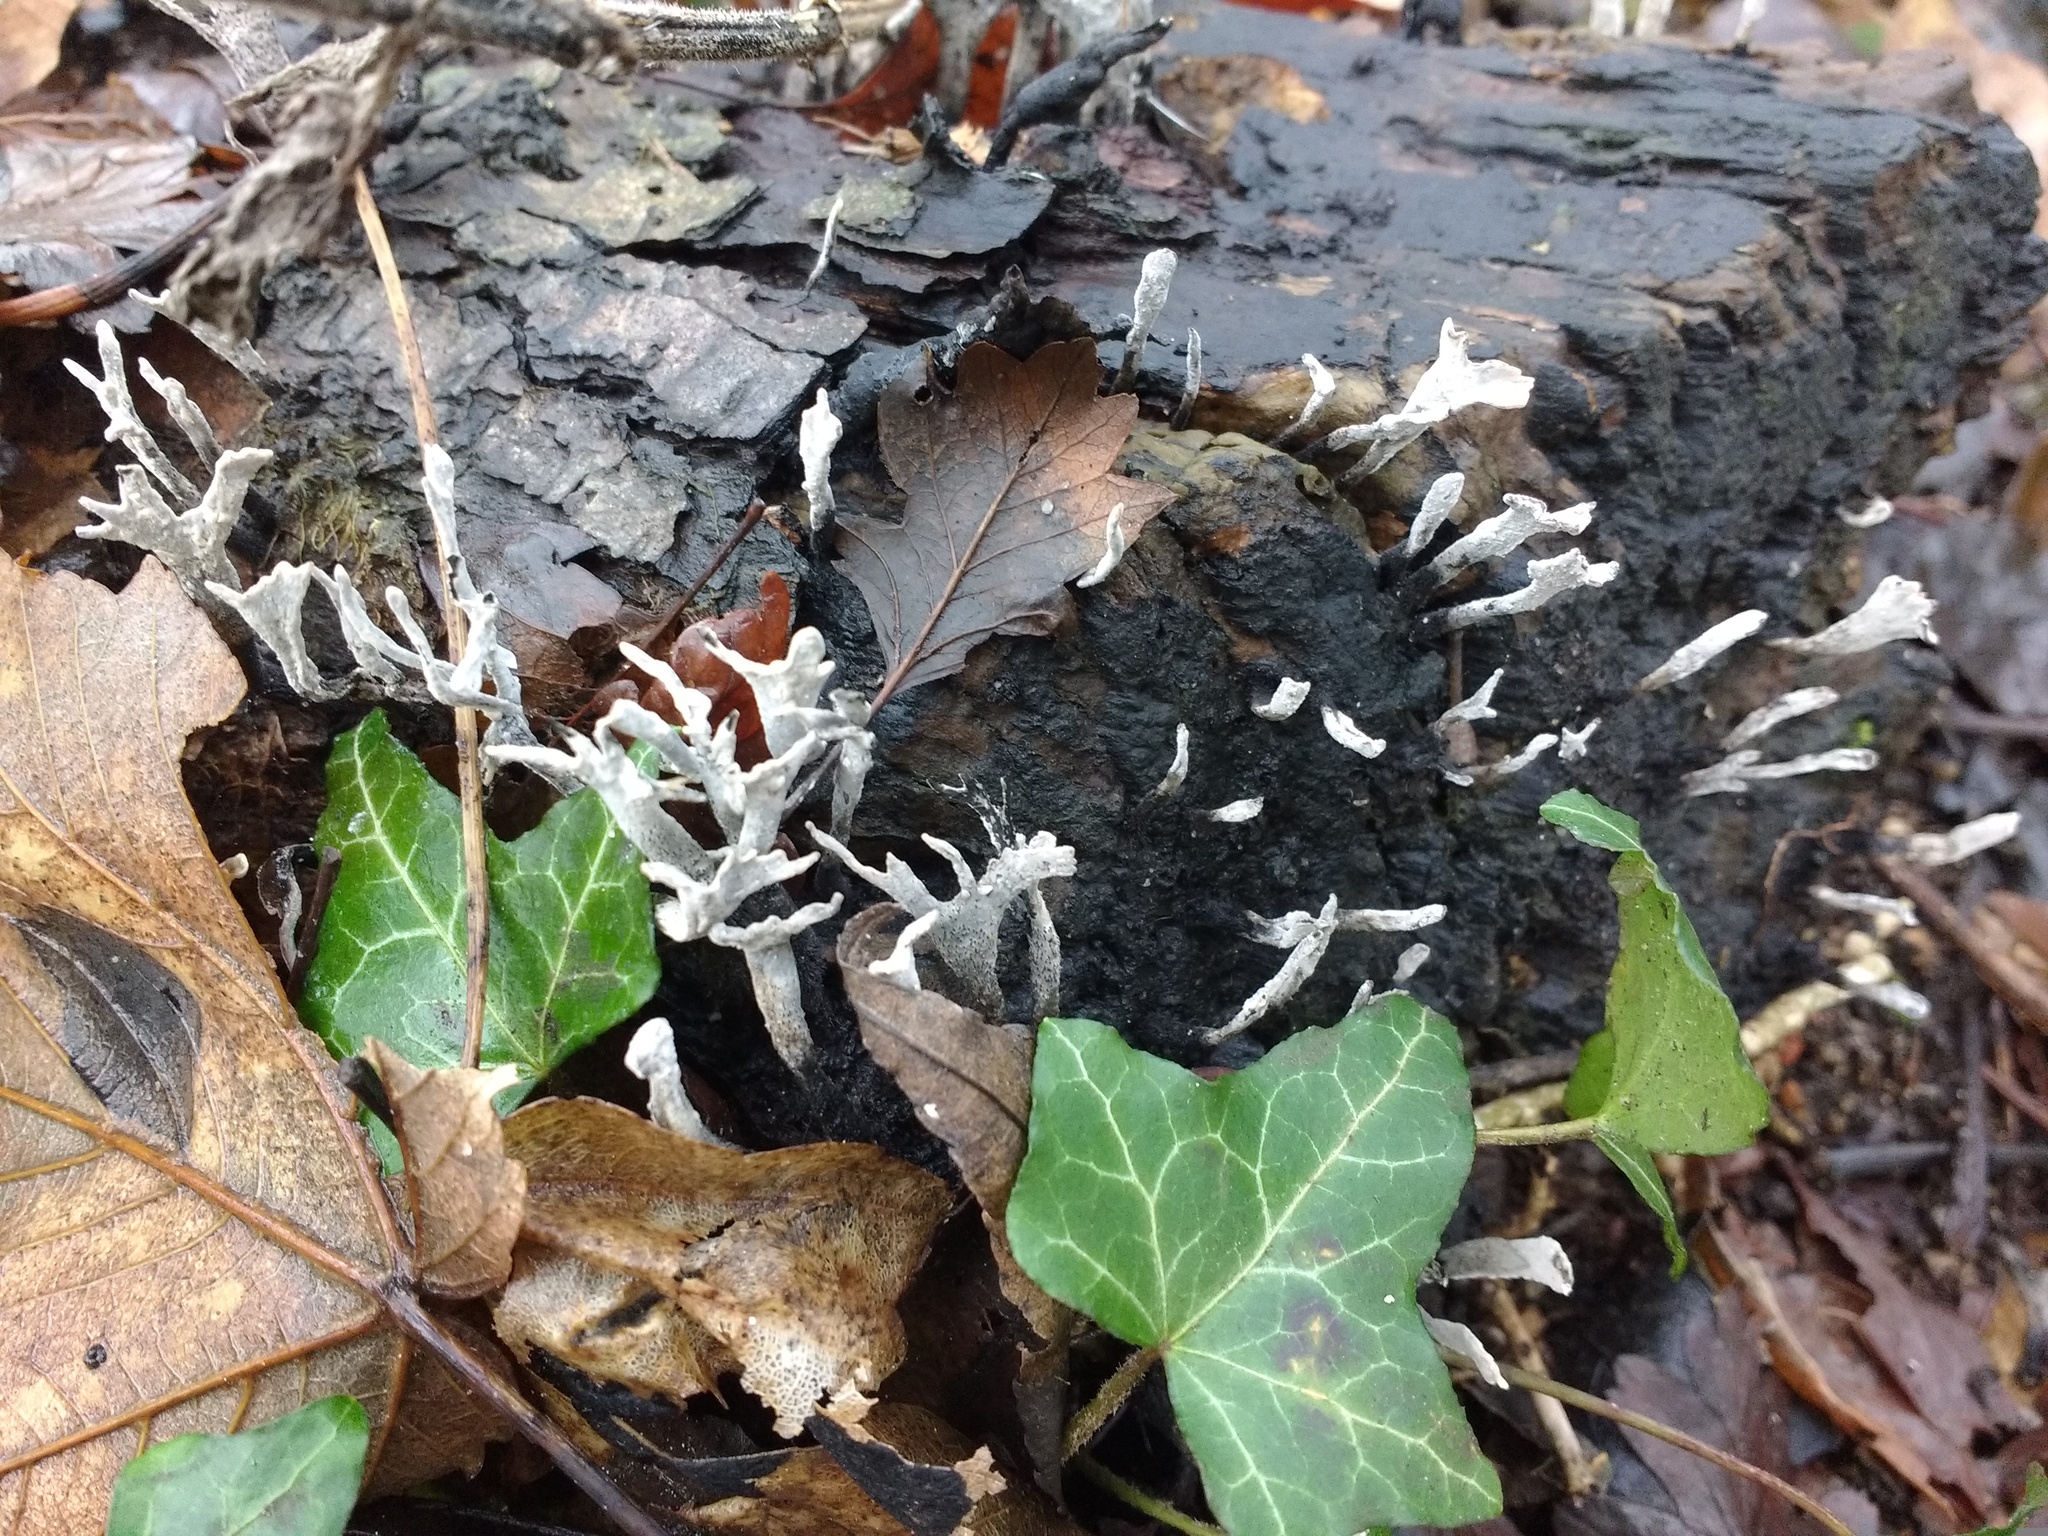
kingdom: Fungi
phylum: Ascomycota
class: Sordariomycetes
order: Xylariales
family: Xylariaceae
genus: Xylaria
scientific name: Xylaria hypoxylon
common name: Candle-snuff fungus
